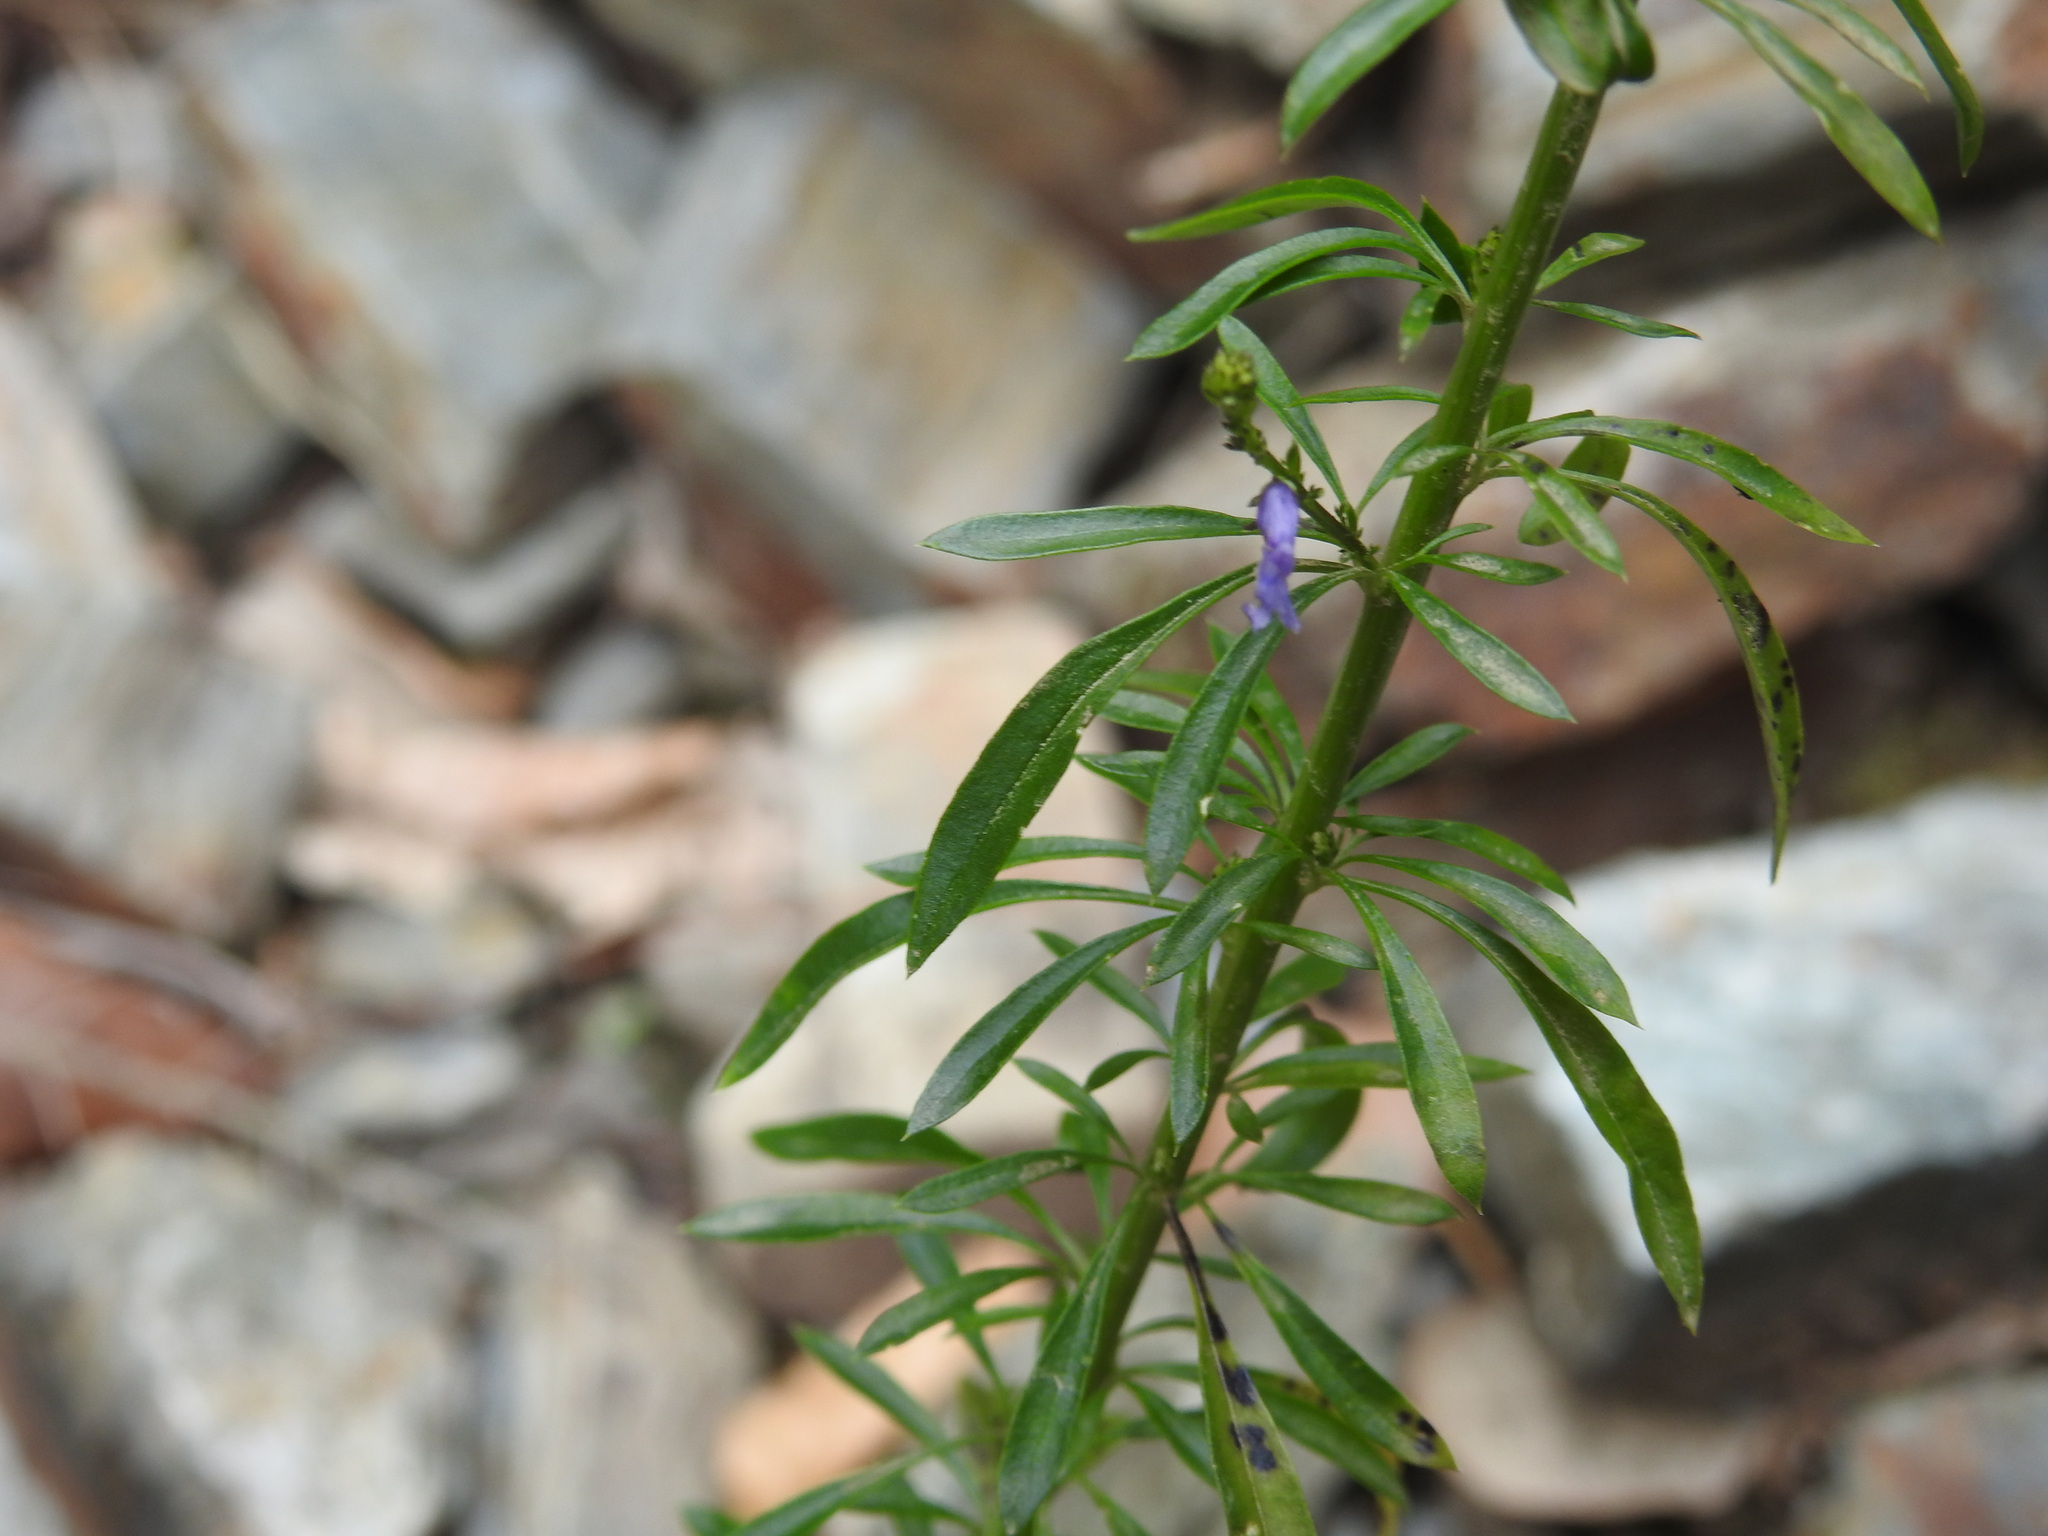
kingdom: Plantae
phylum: Tracheophyta
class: Magnoliopsida
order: Lamiales
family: Plantaginaceae
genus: Anarrhinum
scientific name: Anarrhinum bellidifolium
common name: Daisy-leaved toadflax
